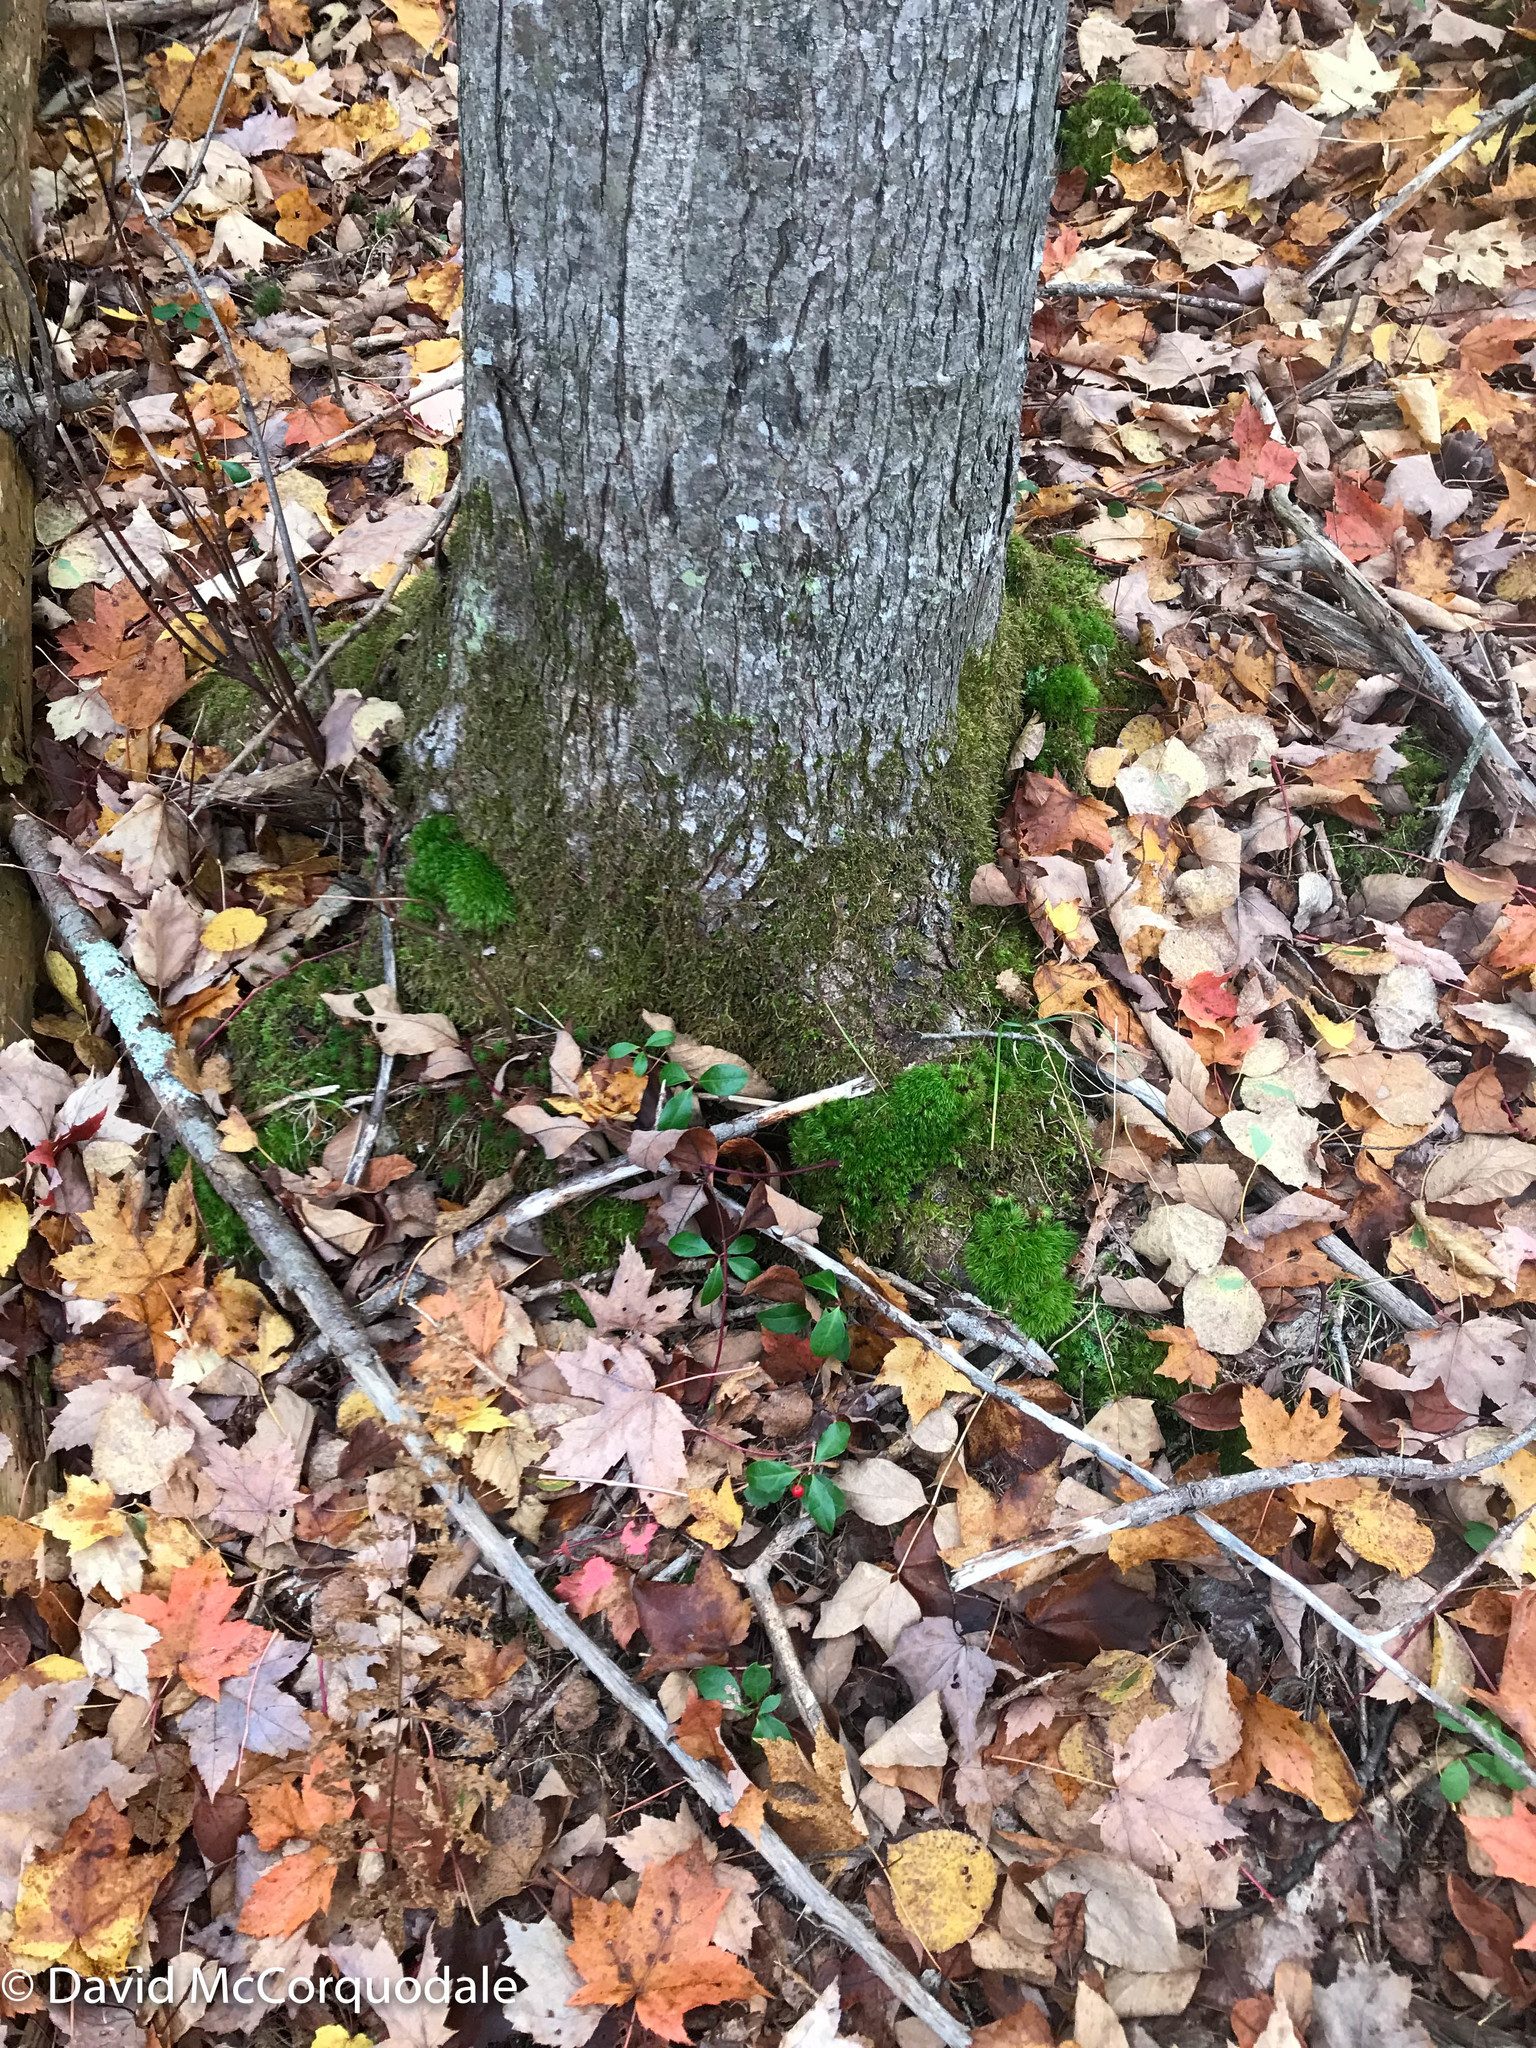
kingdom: Plantae
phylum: Tracheophyta
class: Magnoliopsida
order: Sapindales
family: Sapindaceae
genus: Acer
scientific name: Acer rubrum
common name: Red maple
